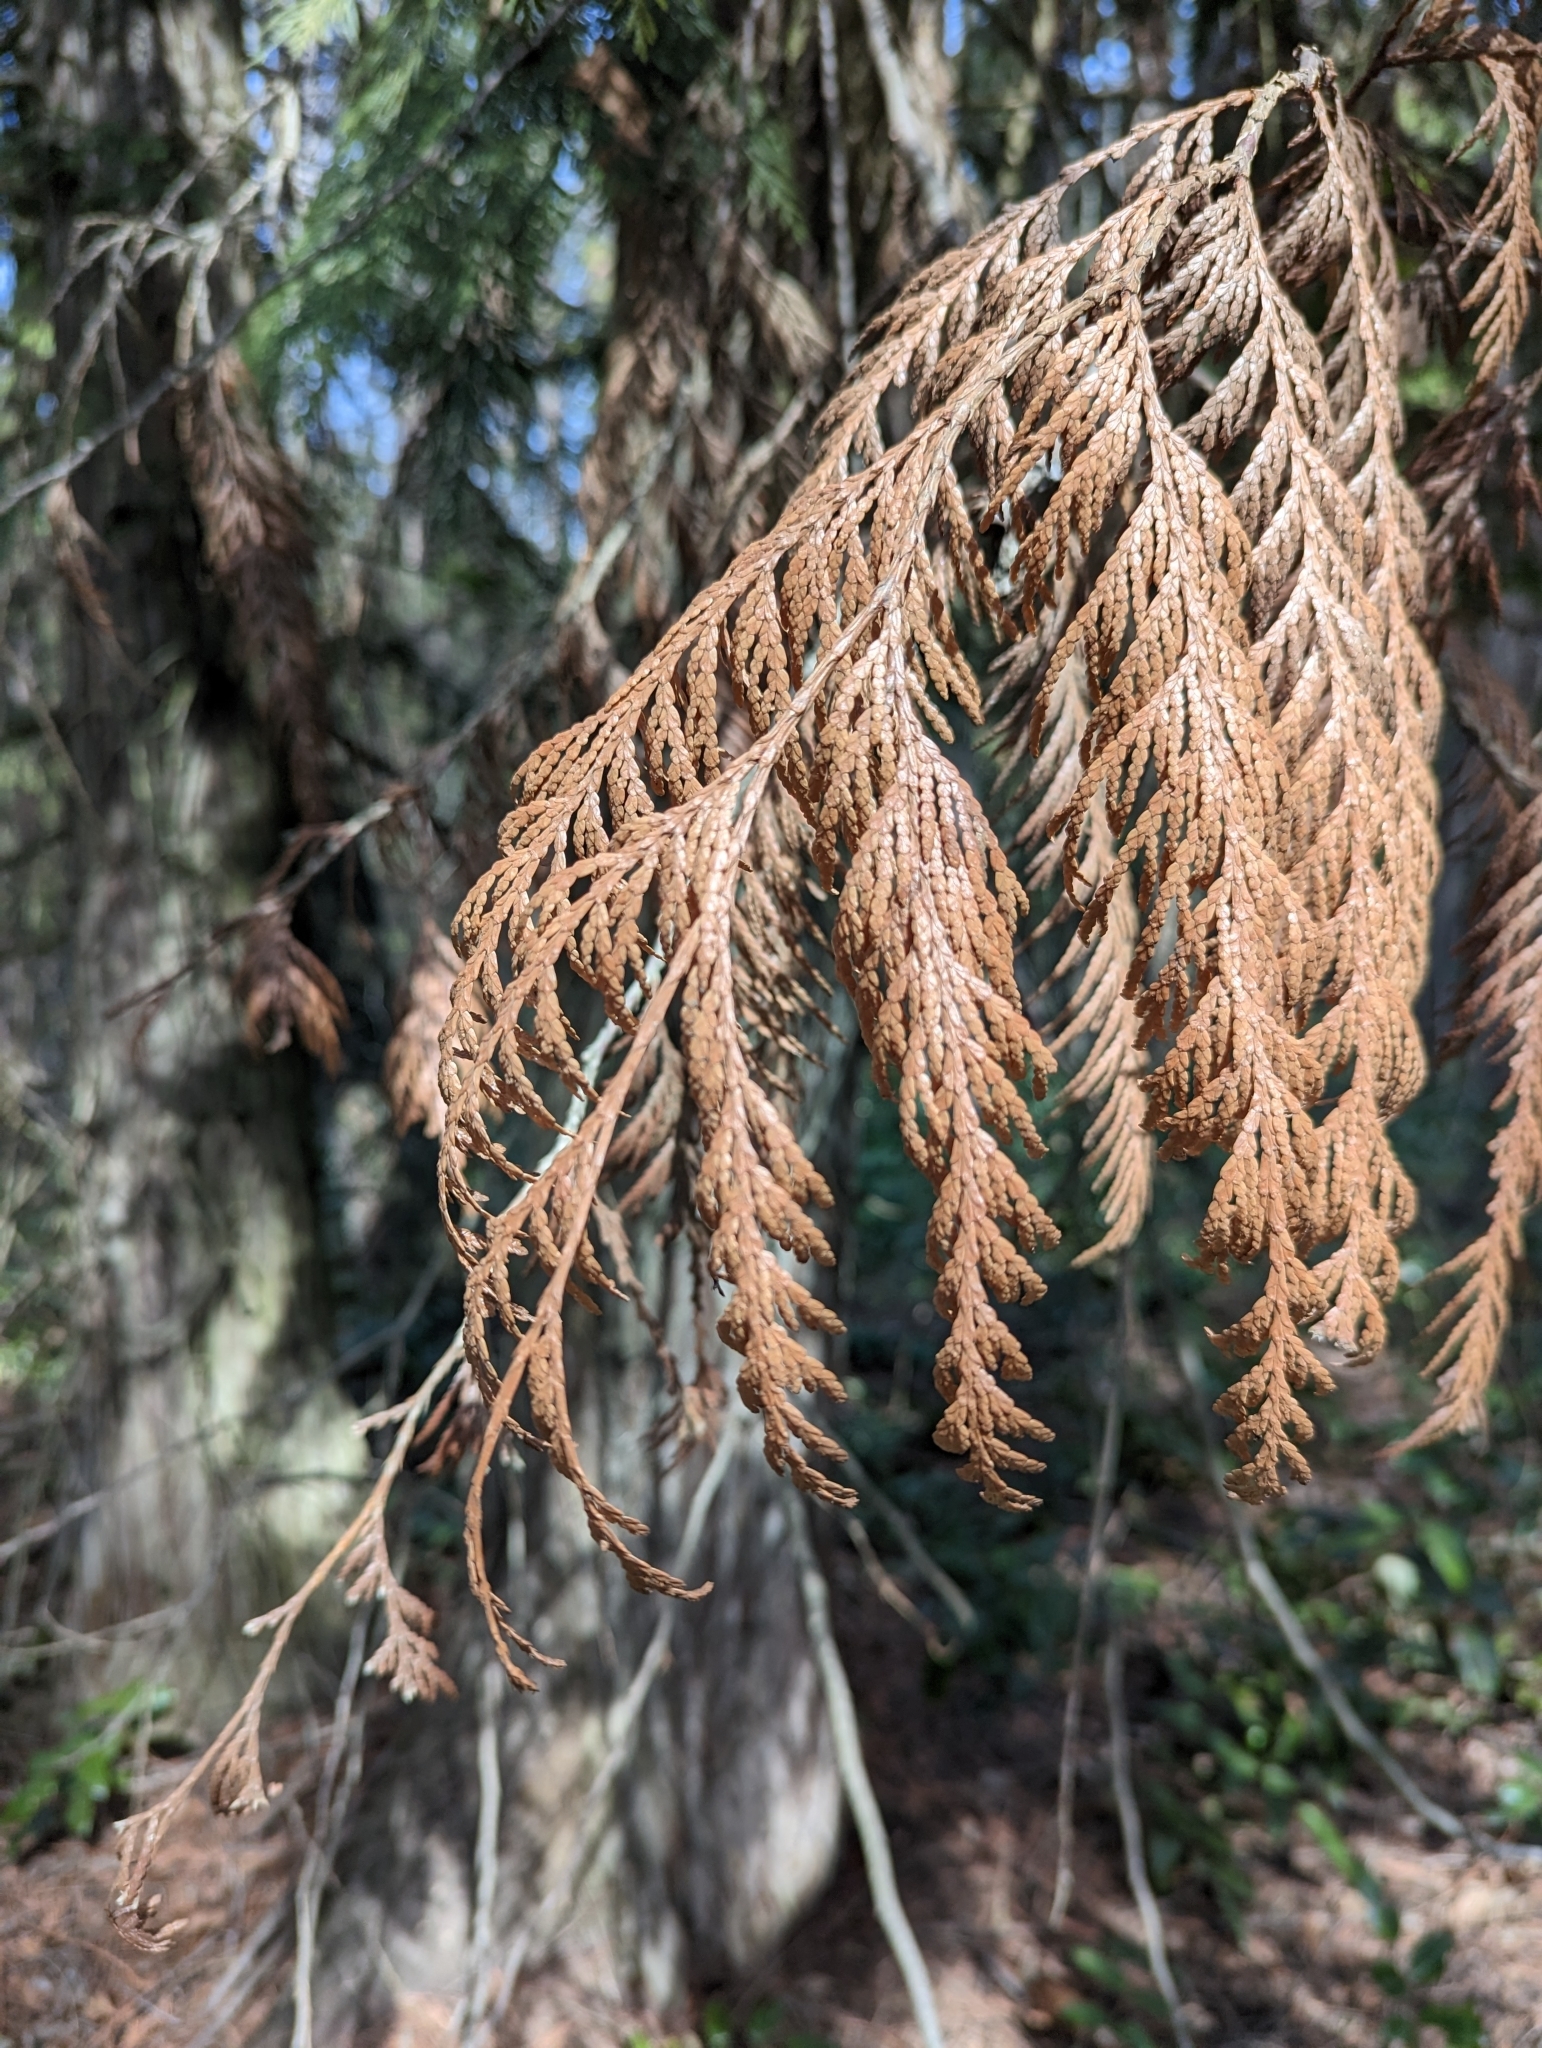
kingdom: Plantae
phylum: Tracheophyta
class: Pinopsida
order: Pinales
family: Cupressaceae
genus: Thuja
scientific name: Thuja plicata
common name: Western red-cedar
